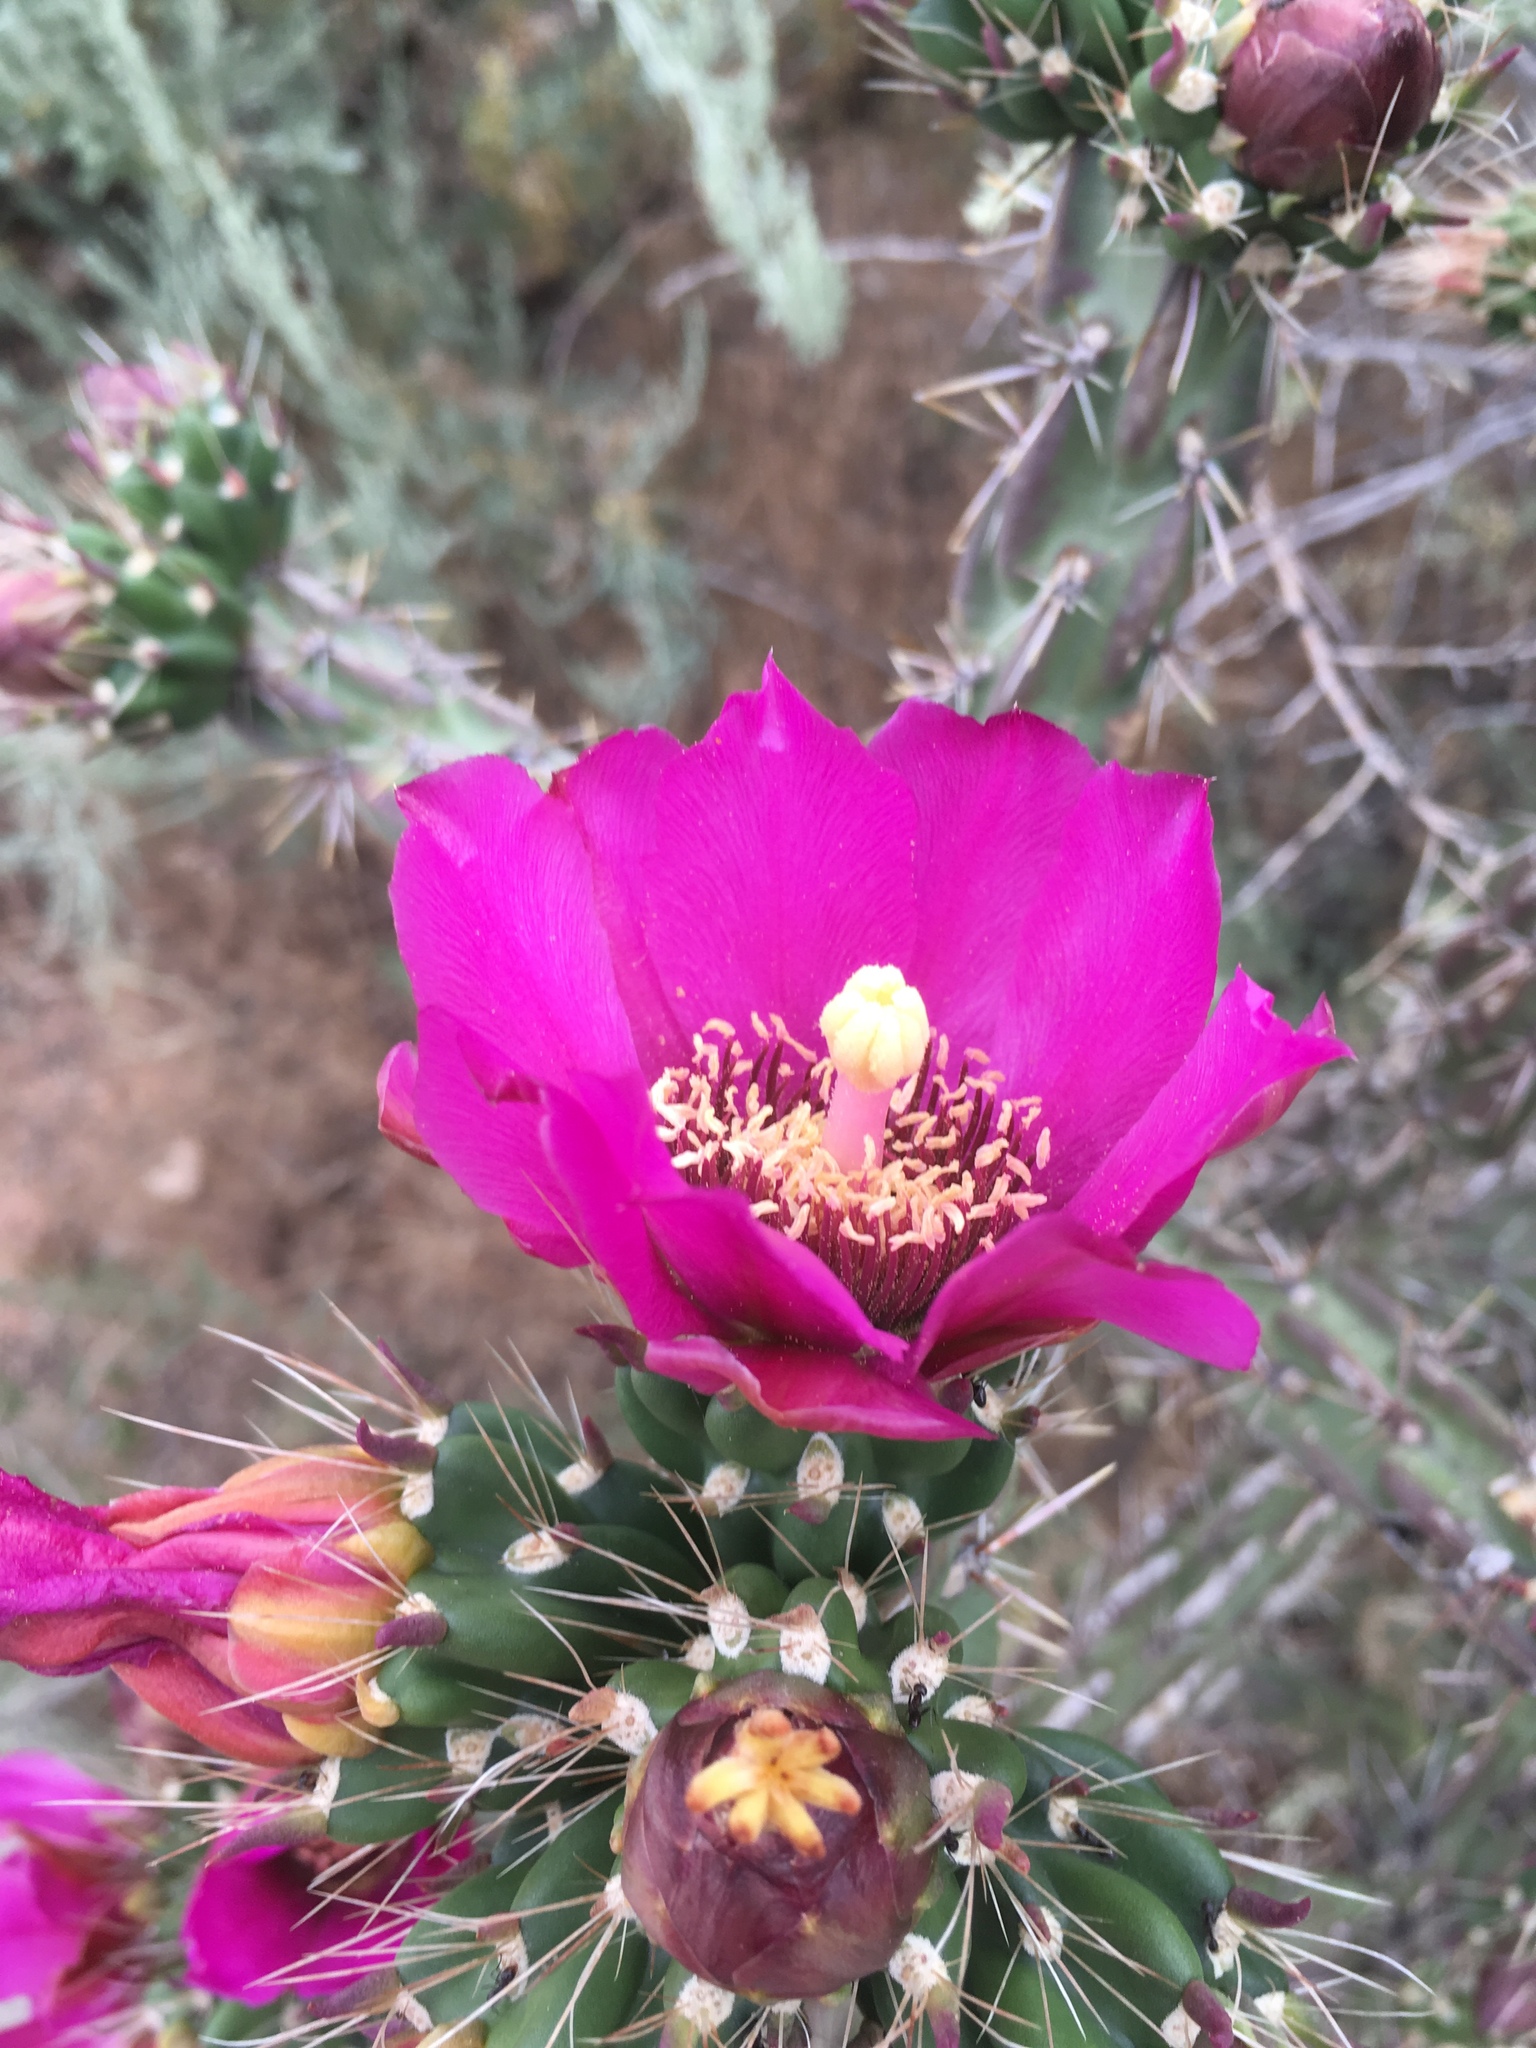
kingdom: Plantae
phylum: Tracheophyta
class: Magnoliopsida
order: Caryophyllales
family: Cactaceae
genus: Cylindropuntia
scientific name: Cylindropuntia imbricata
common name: Candelabrum cactus
